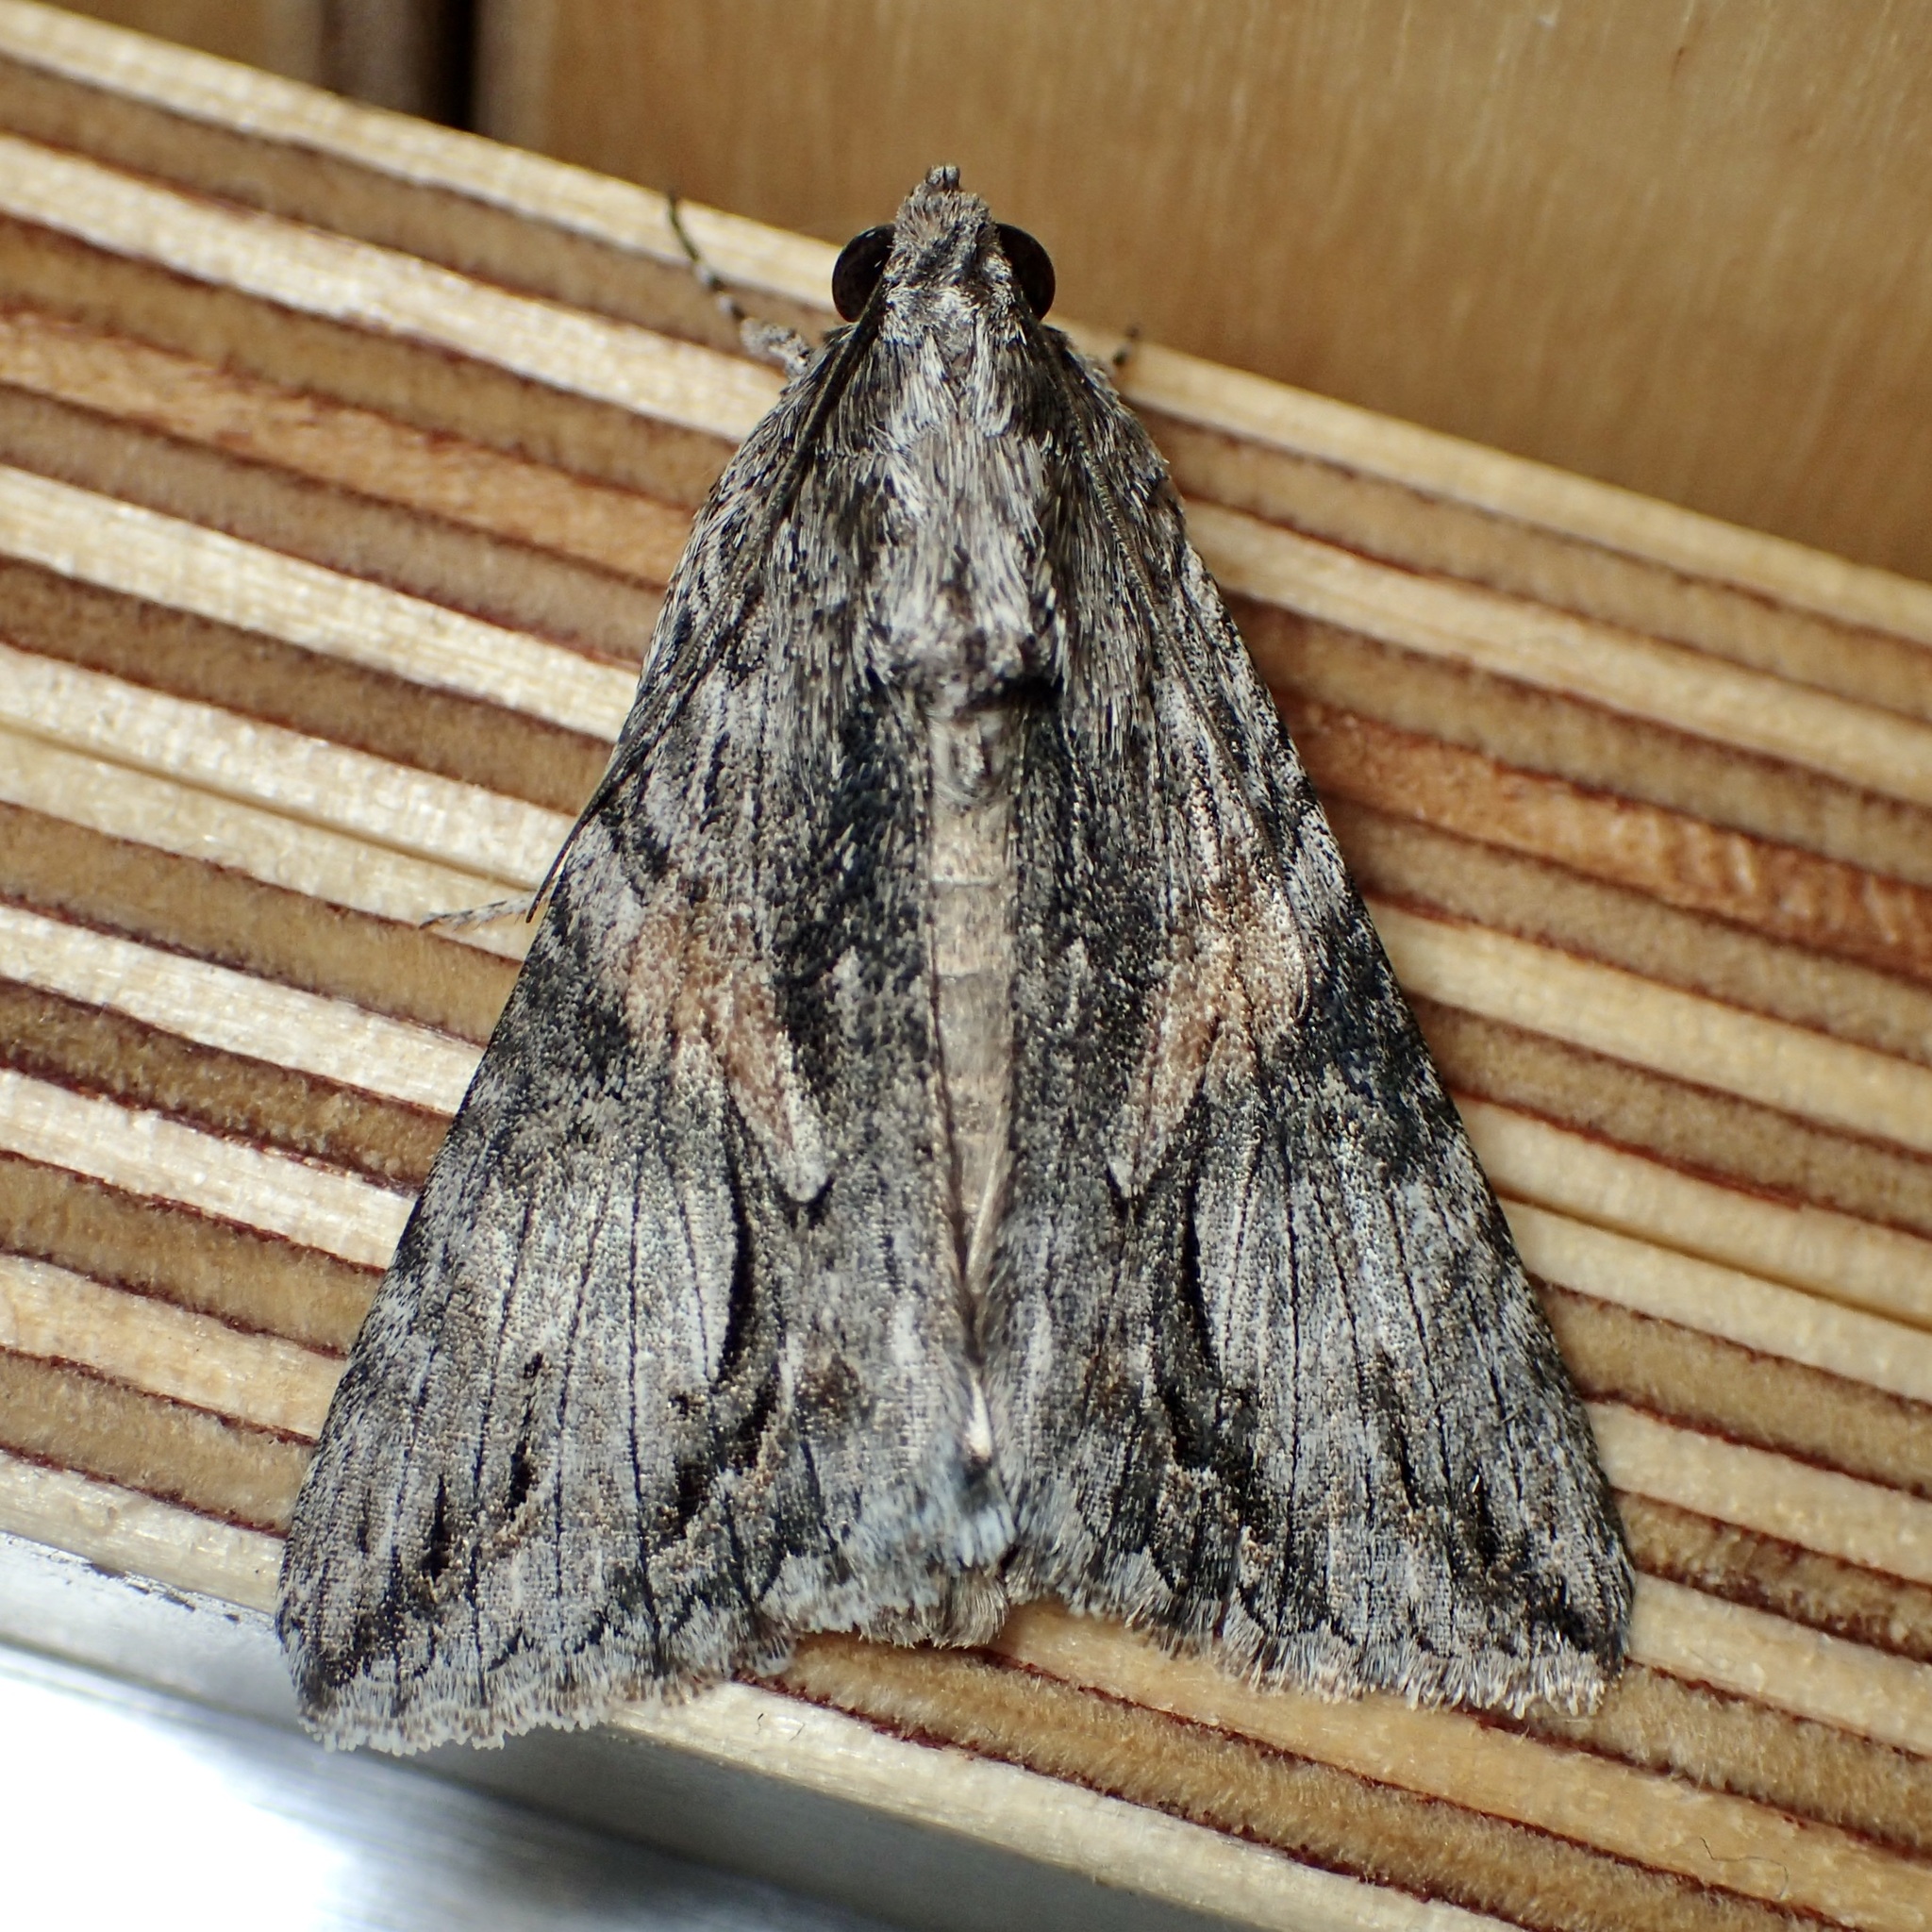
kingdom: Animalia
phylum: Arthropoda
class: Insecta
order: Lepidoptera
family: Erebidae
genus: Melipotis
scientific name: Melipotis jucunda
